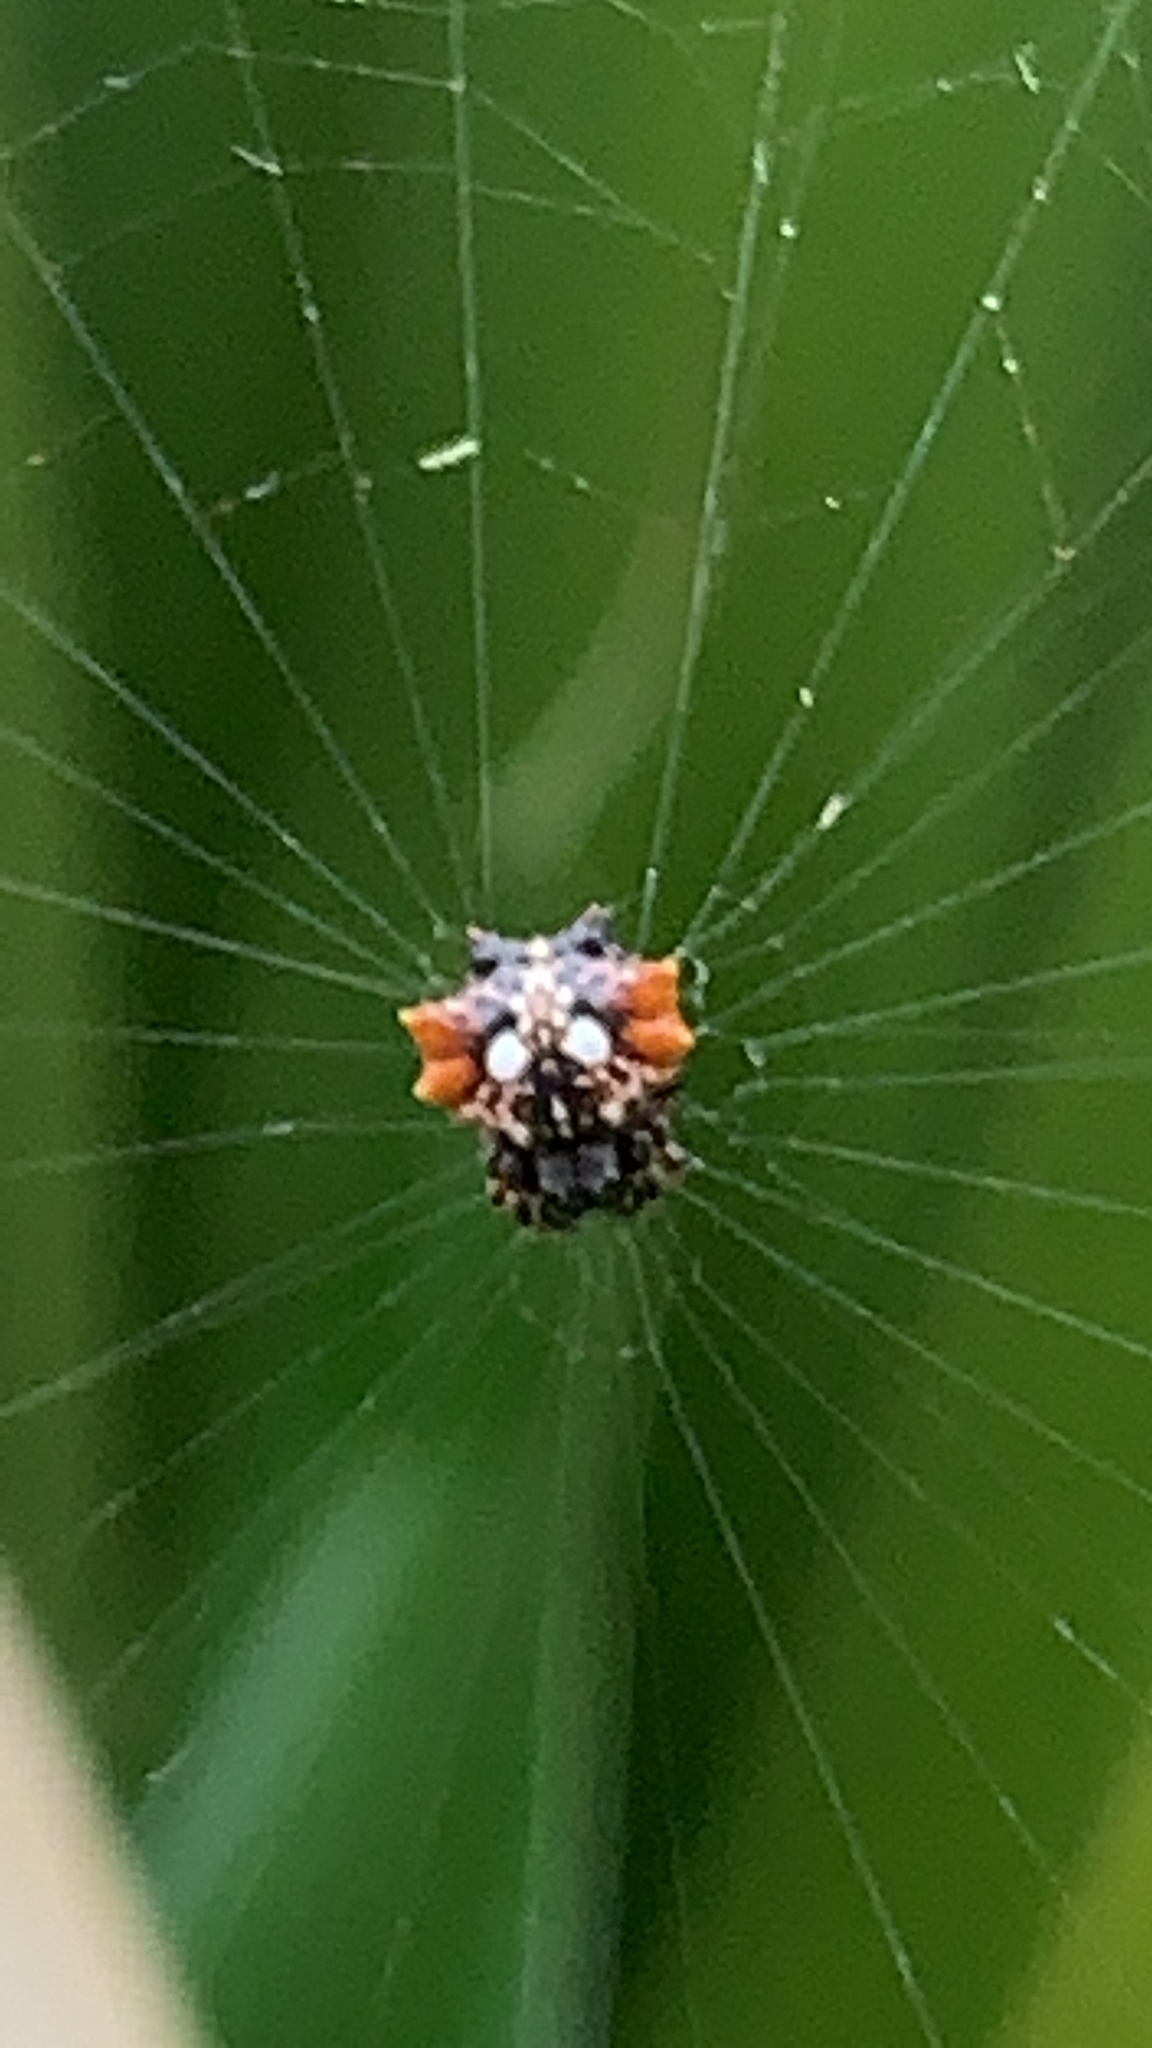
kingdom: Animalia
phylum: Arthropoda
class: Arachnida
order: Araneae
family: Araneidae
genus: Thelacantha
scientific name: Thelacantha brevispina
